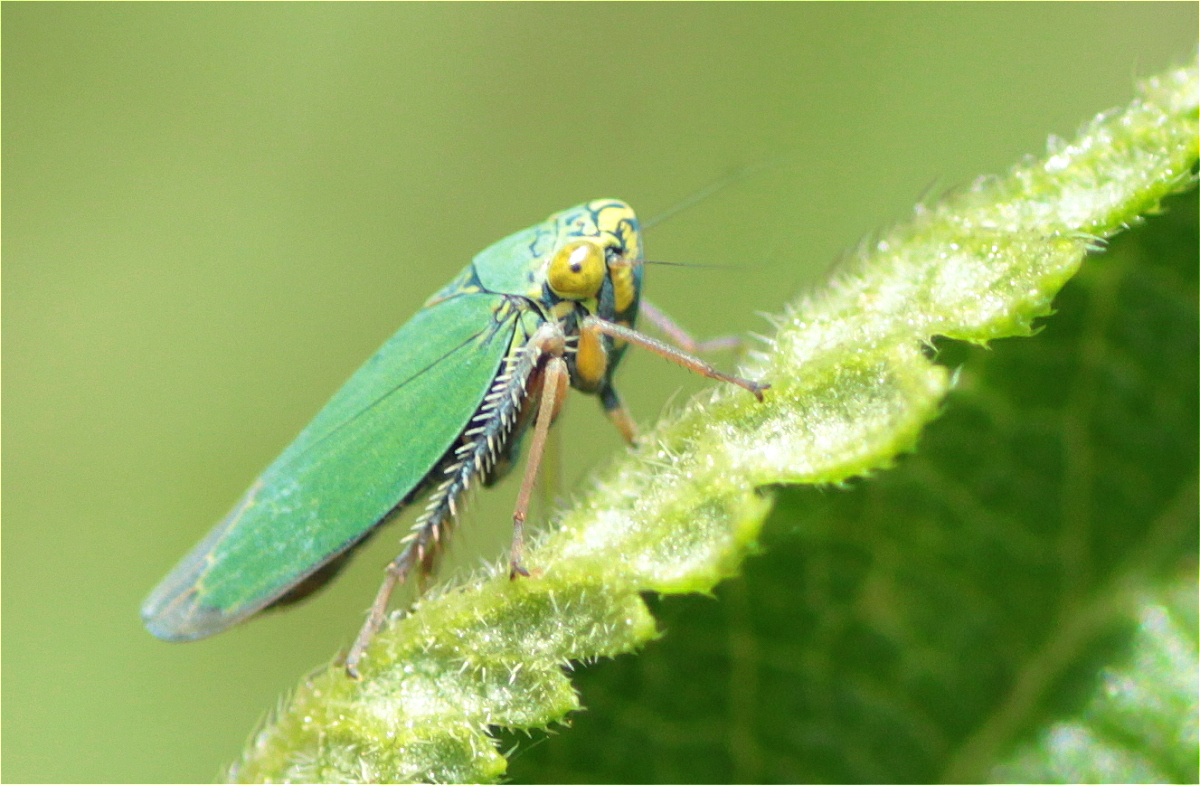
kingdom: Animalia
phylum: Arthropoda
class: Insecta
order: Hemiptera
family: Cicadellidae
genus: Tortigonalia
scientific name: Tortigonalia longicaudata
